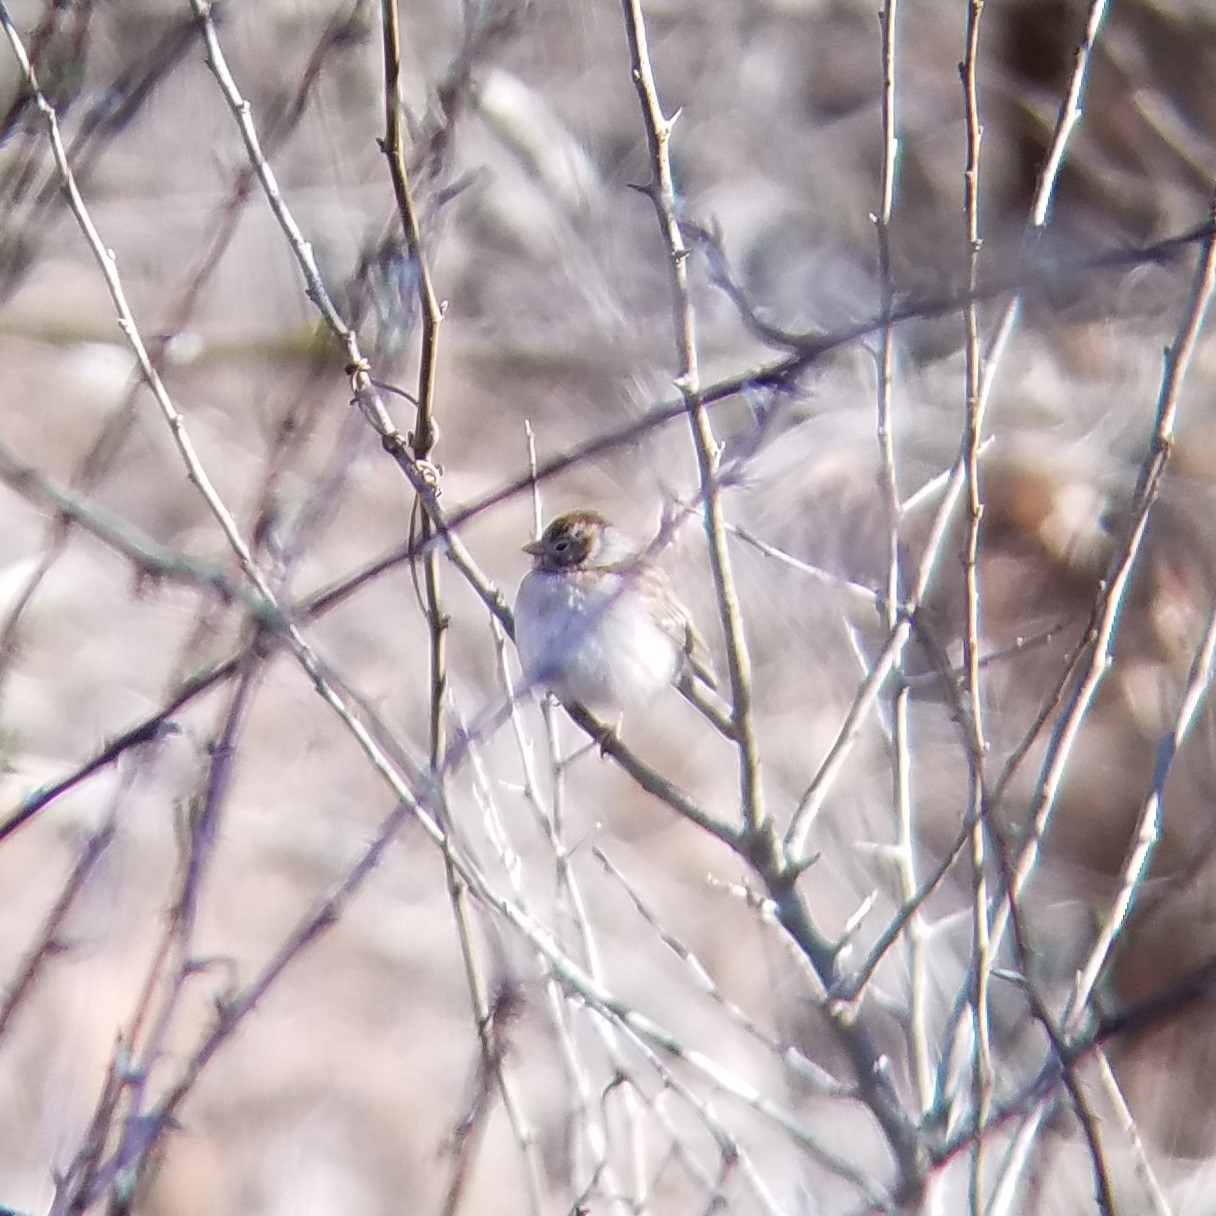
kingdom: Animalia
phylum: Chordata
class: Aves
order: Passeriformes
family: Passerellidae
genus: Spizella
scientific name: Spizella pusilla
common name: Field sparrow
